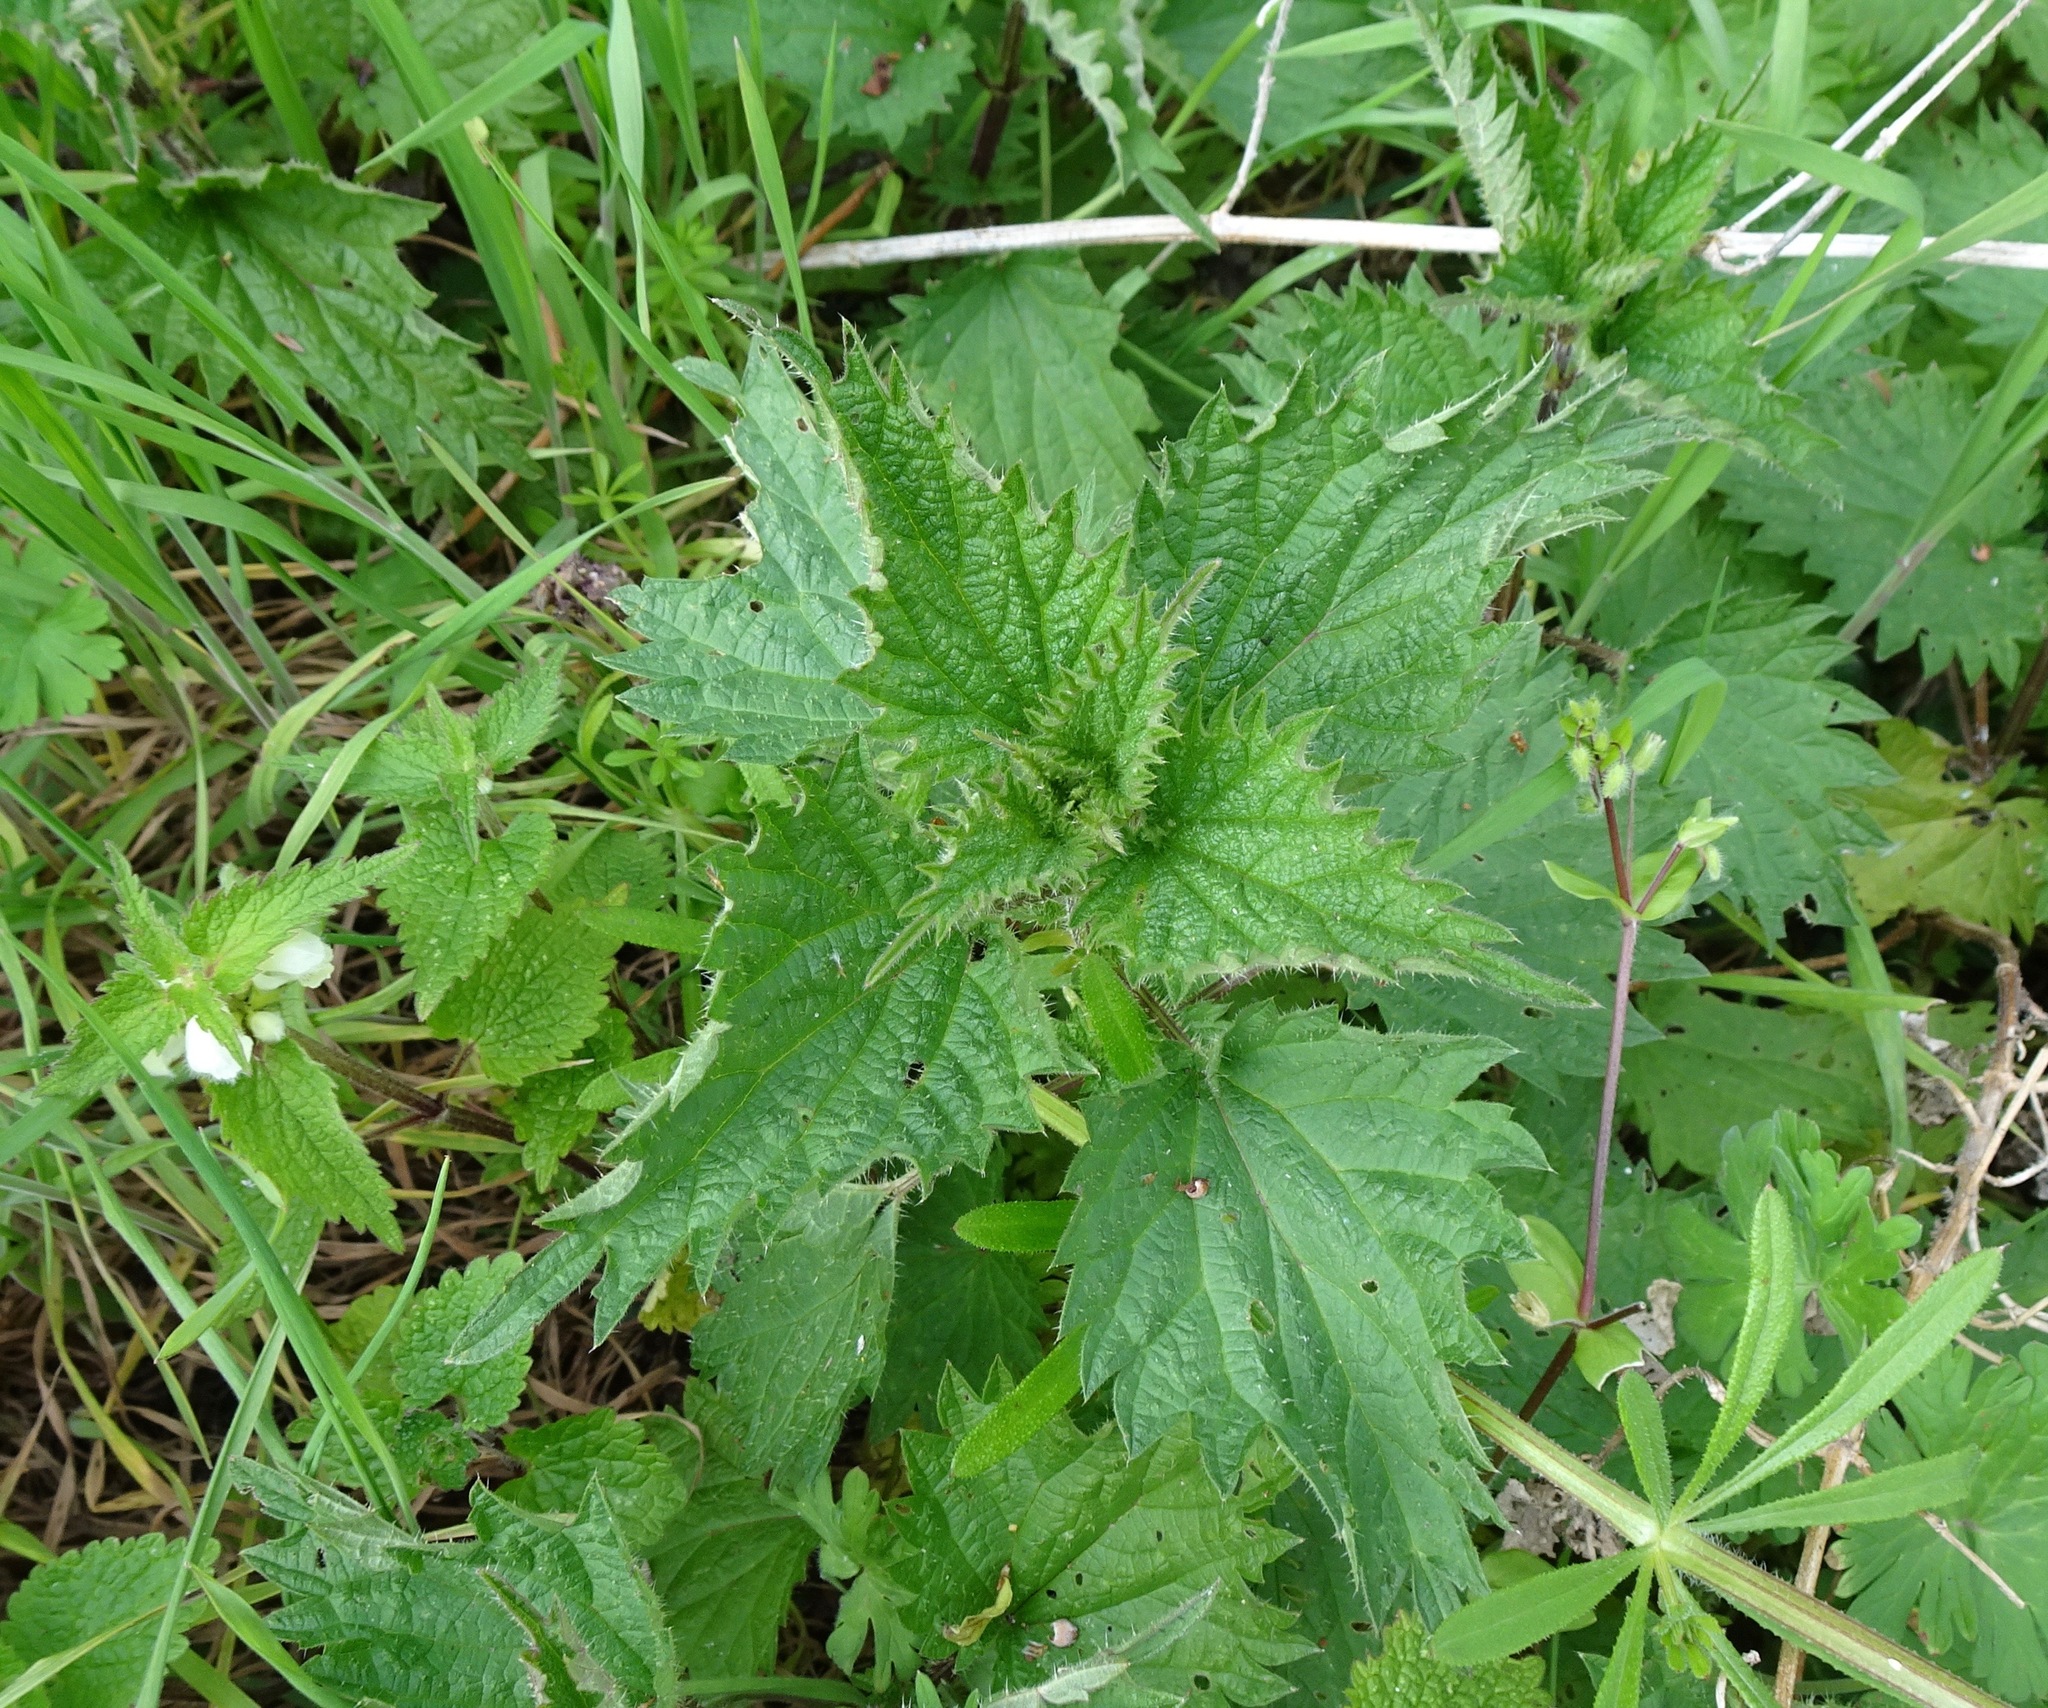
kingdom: Plantae
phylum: Tracheophyta
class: Magnoliopsida
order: Rosales
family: Urticaceae
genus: Urtica
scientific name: Urtica dioica
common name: Common nettle
